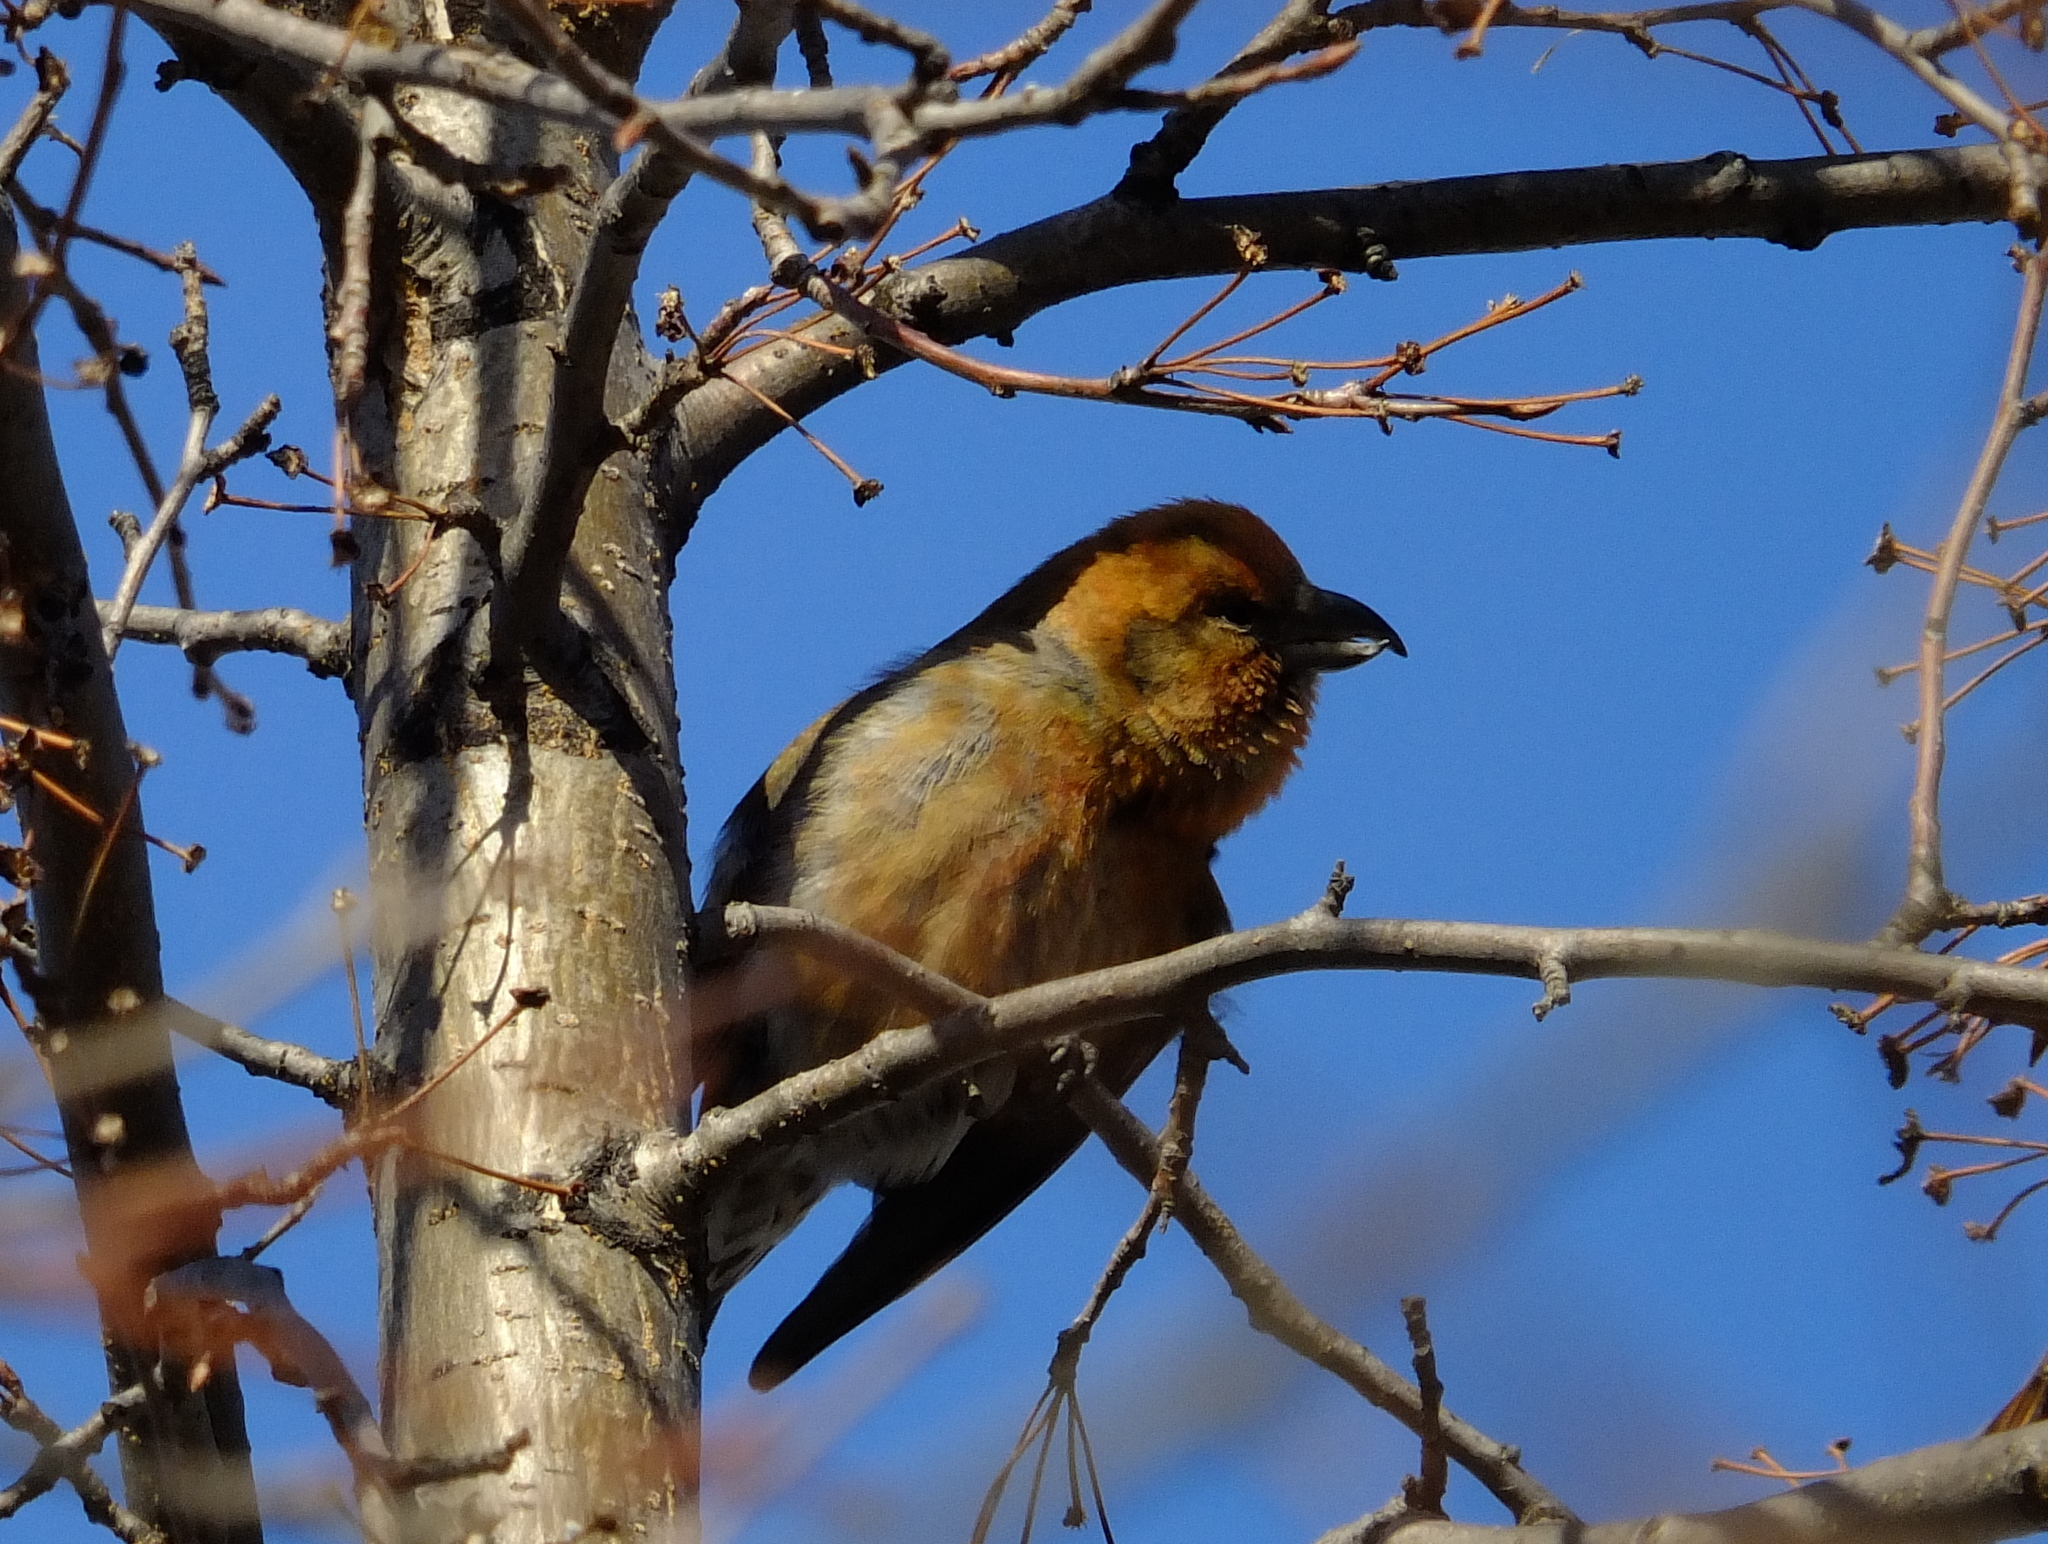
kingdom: Animalia
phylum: Chordata
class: Aves
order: Passeriformes
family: Fringillidae
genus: Loxia
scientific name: Loxia curvirostra
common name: Red crossbill
